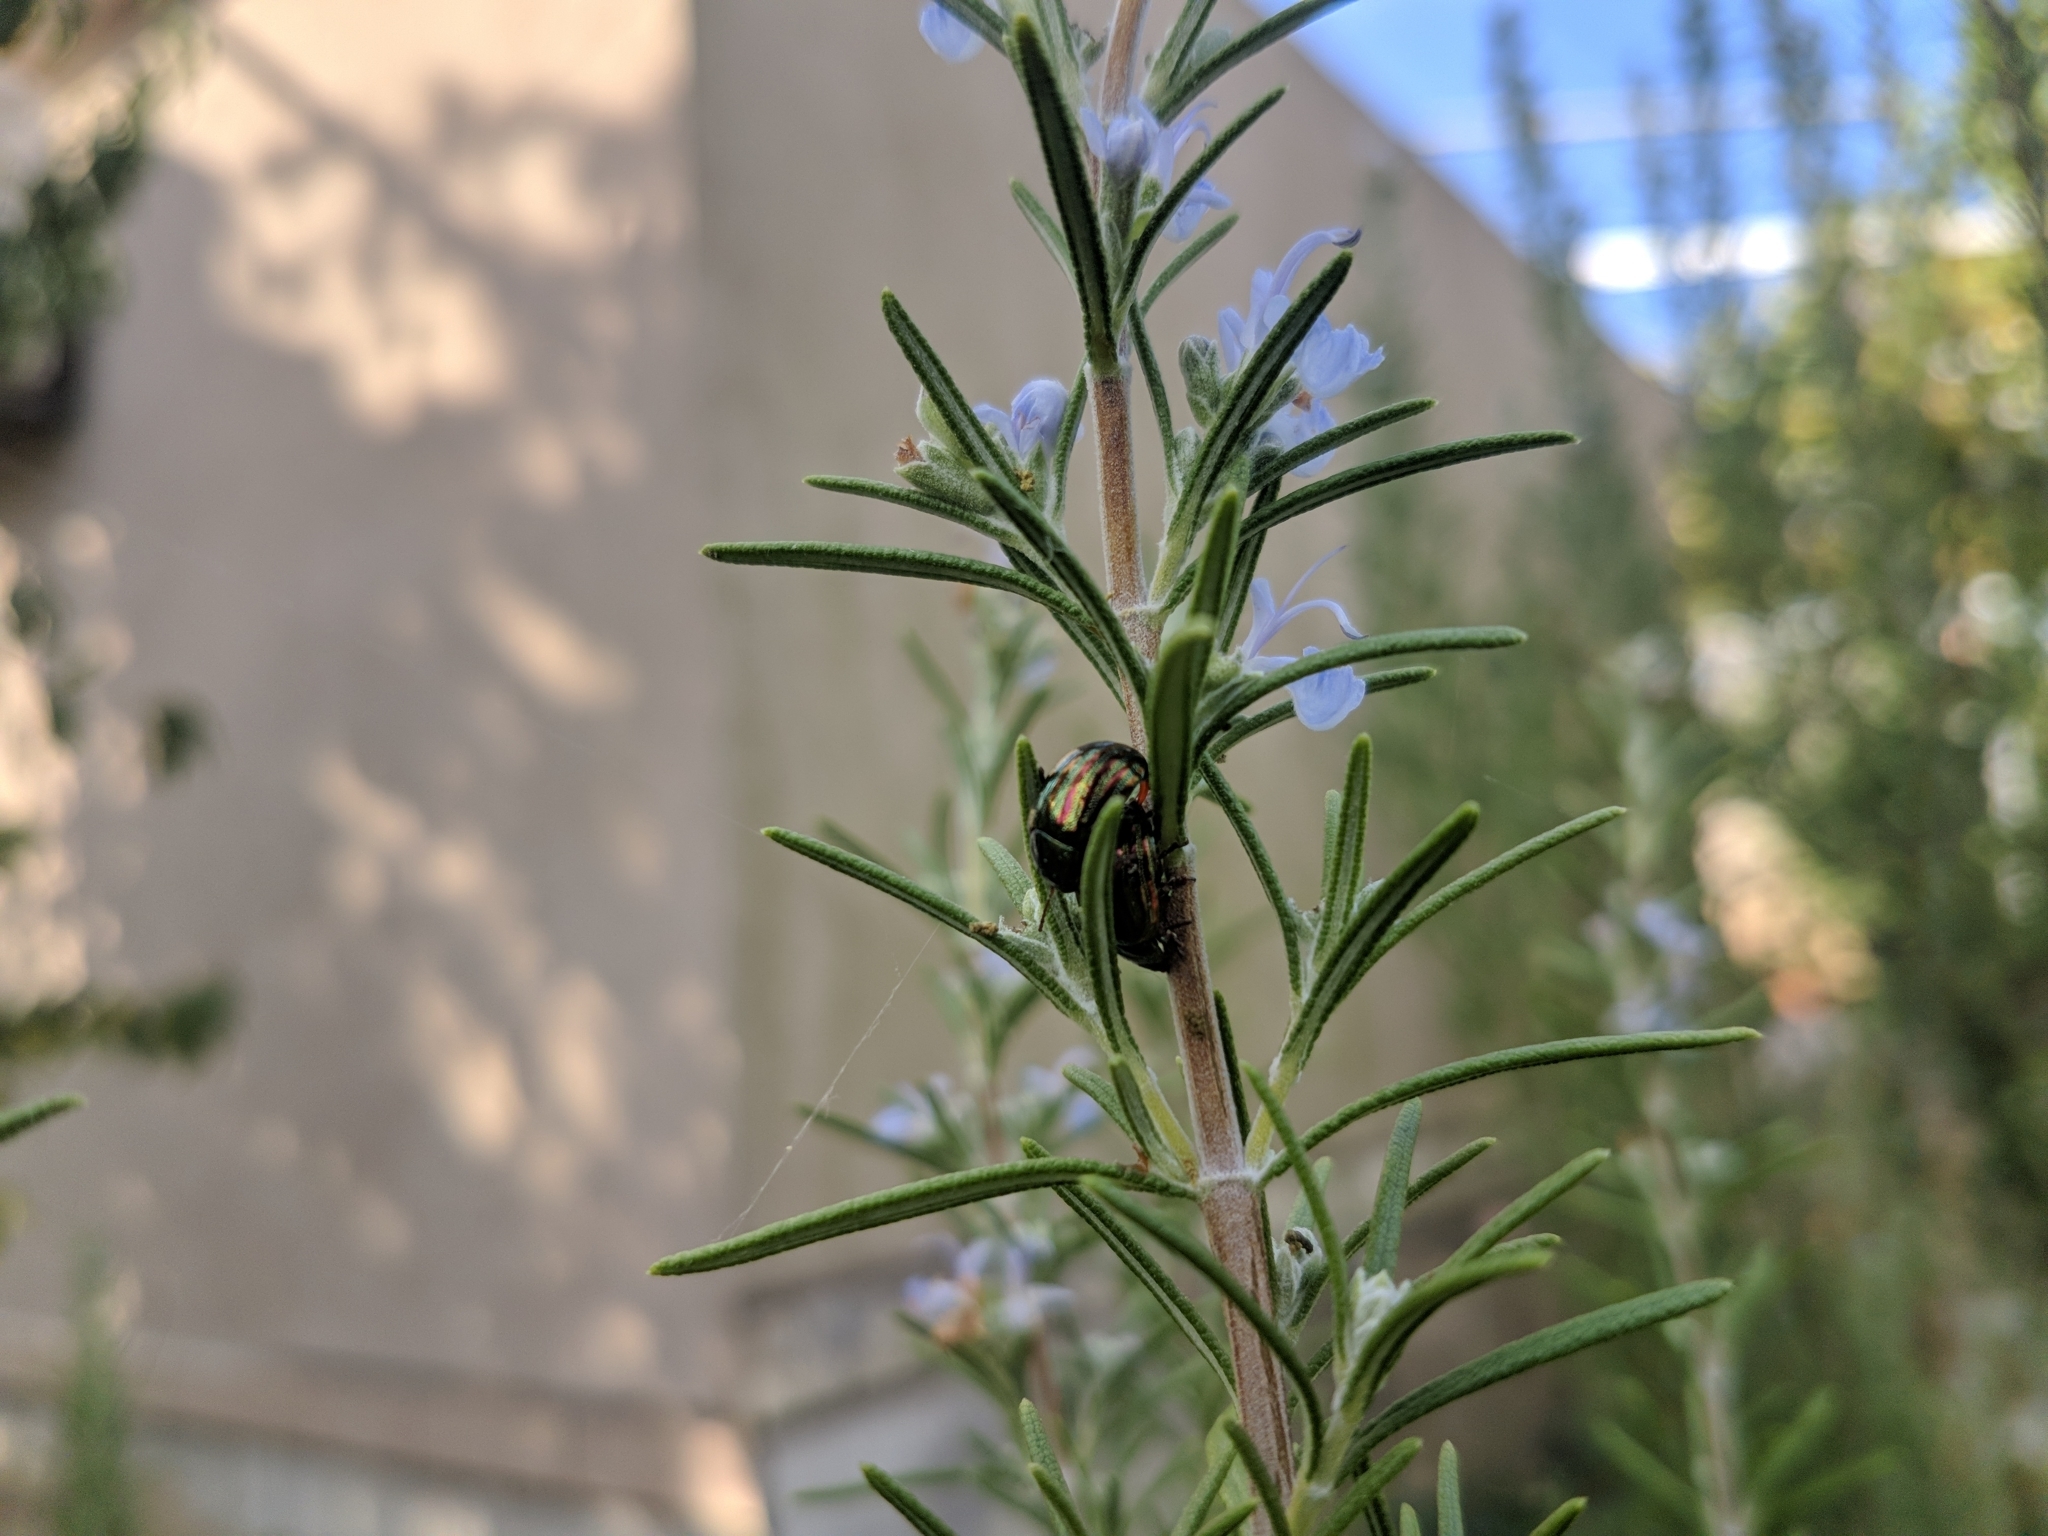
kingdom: Animalia
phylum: Arthropoda
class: Insecta
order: Coleoptera
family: Chrysomelidae
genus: Chrysolina
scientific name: Chrysolina americana
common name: Rosemary beetle
